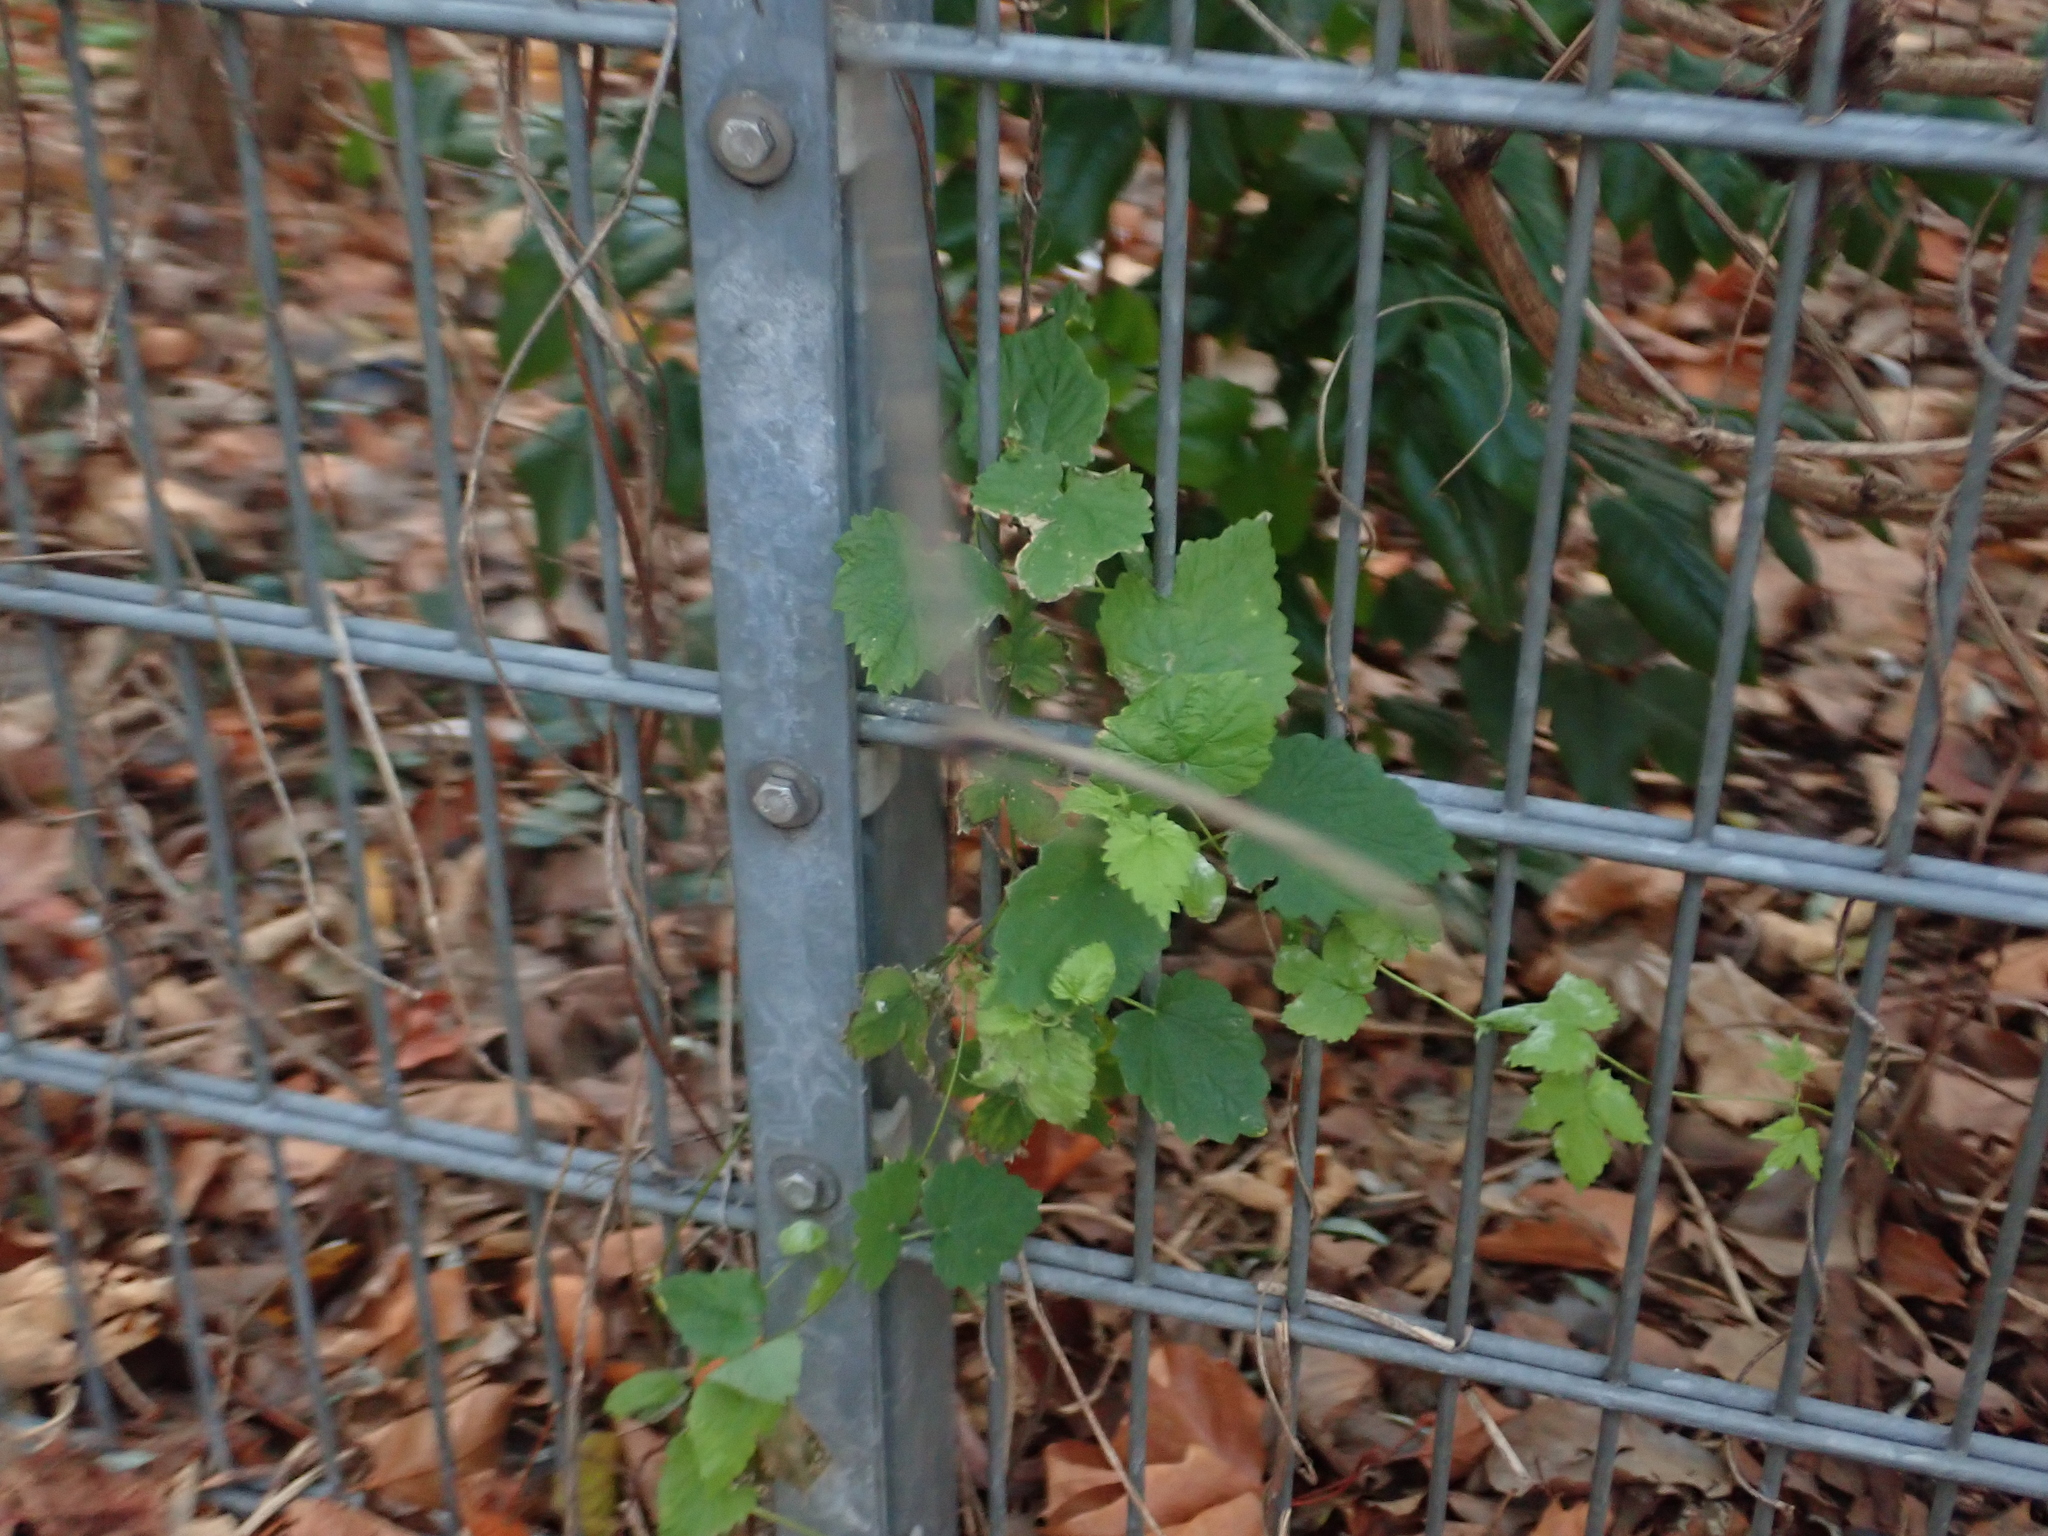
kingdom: Plantae
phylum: Tracheophyta
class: Magnoliopsida
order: Rosales
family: Cannabaceae
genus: Humulus
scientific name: Humulus lupulus
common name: Hop
